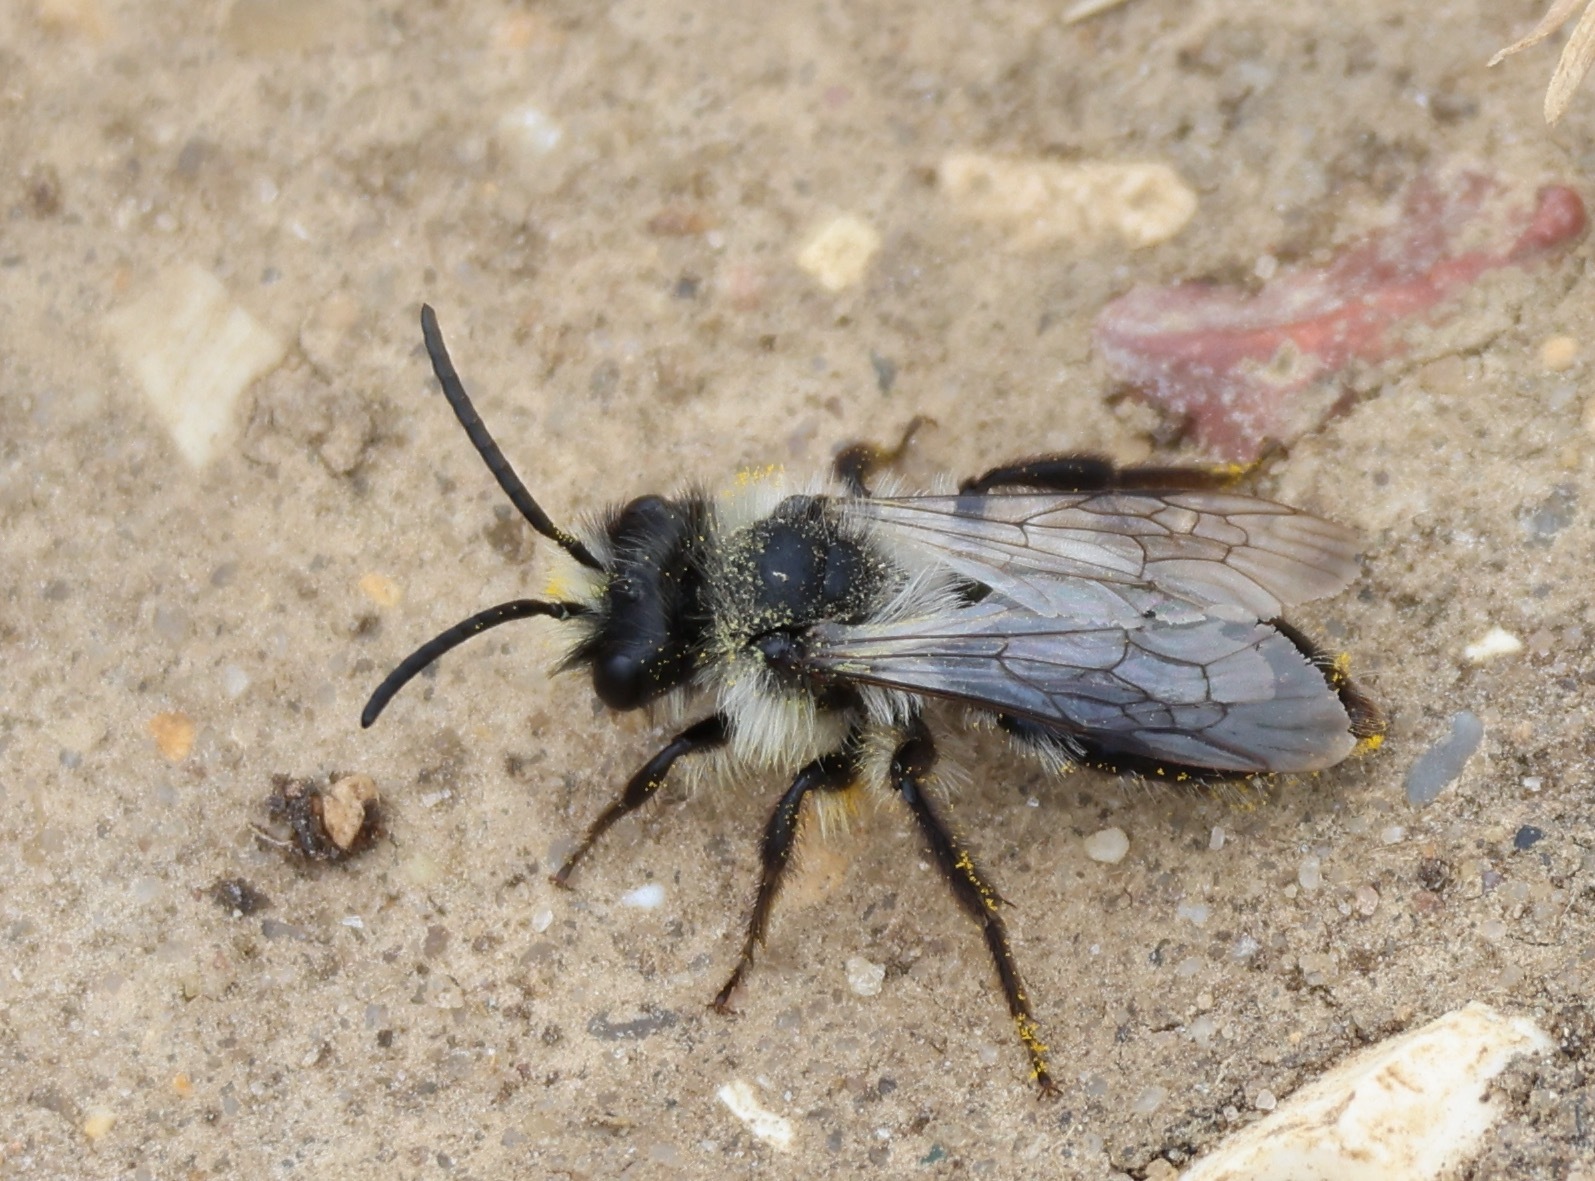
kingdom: Animalia
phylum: Arthropoda
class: Insecta
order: Hymenoptera
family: Andrenidae
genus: Andrena
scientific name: Andrena cineraria
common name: Ashy mining bee
